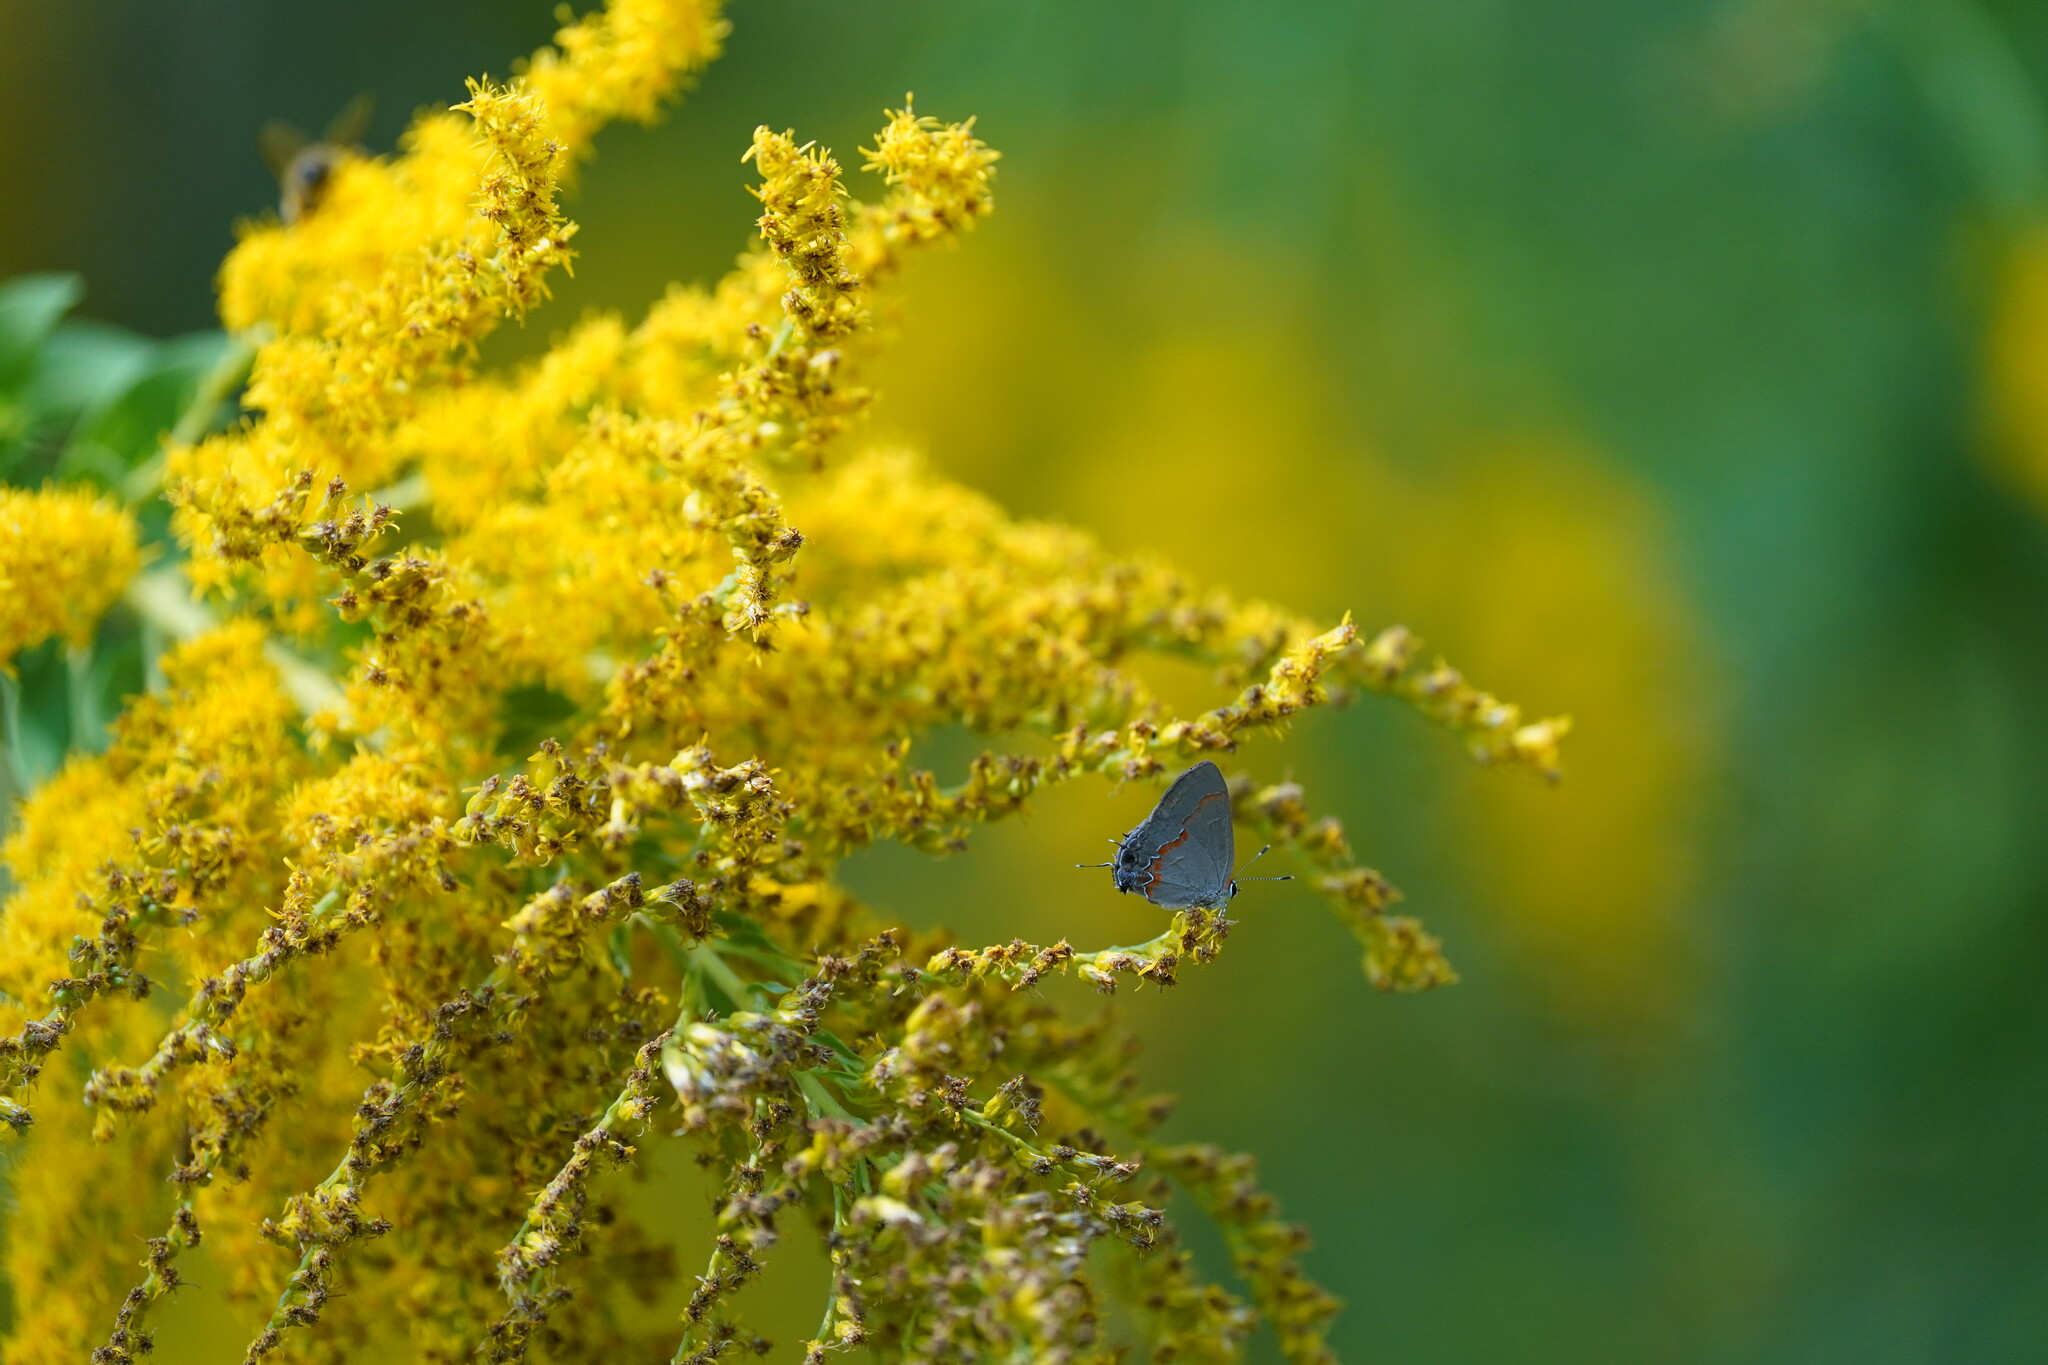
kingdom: Animalia
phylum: Arthropoda
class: Insecta
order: Lepidoptera
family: Lycaenidae
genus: Calycopis
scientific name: Calycopis cecrops
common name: Red-banded hairstreak
